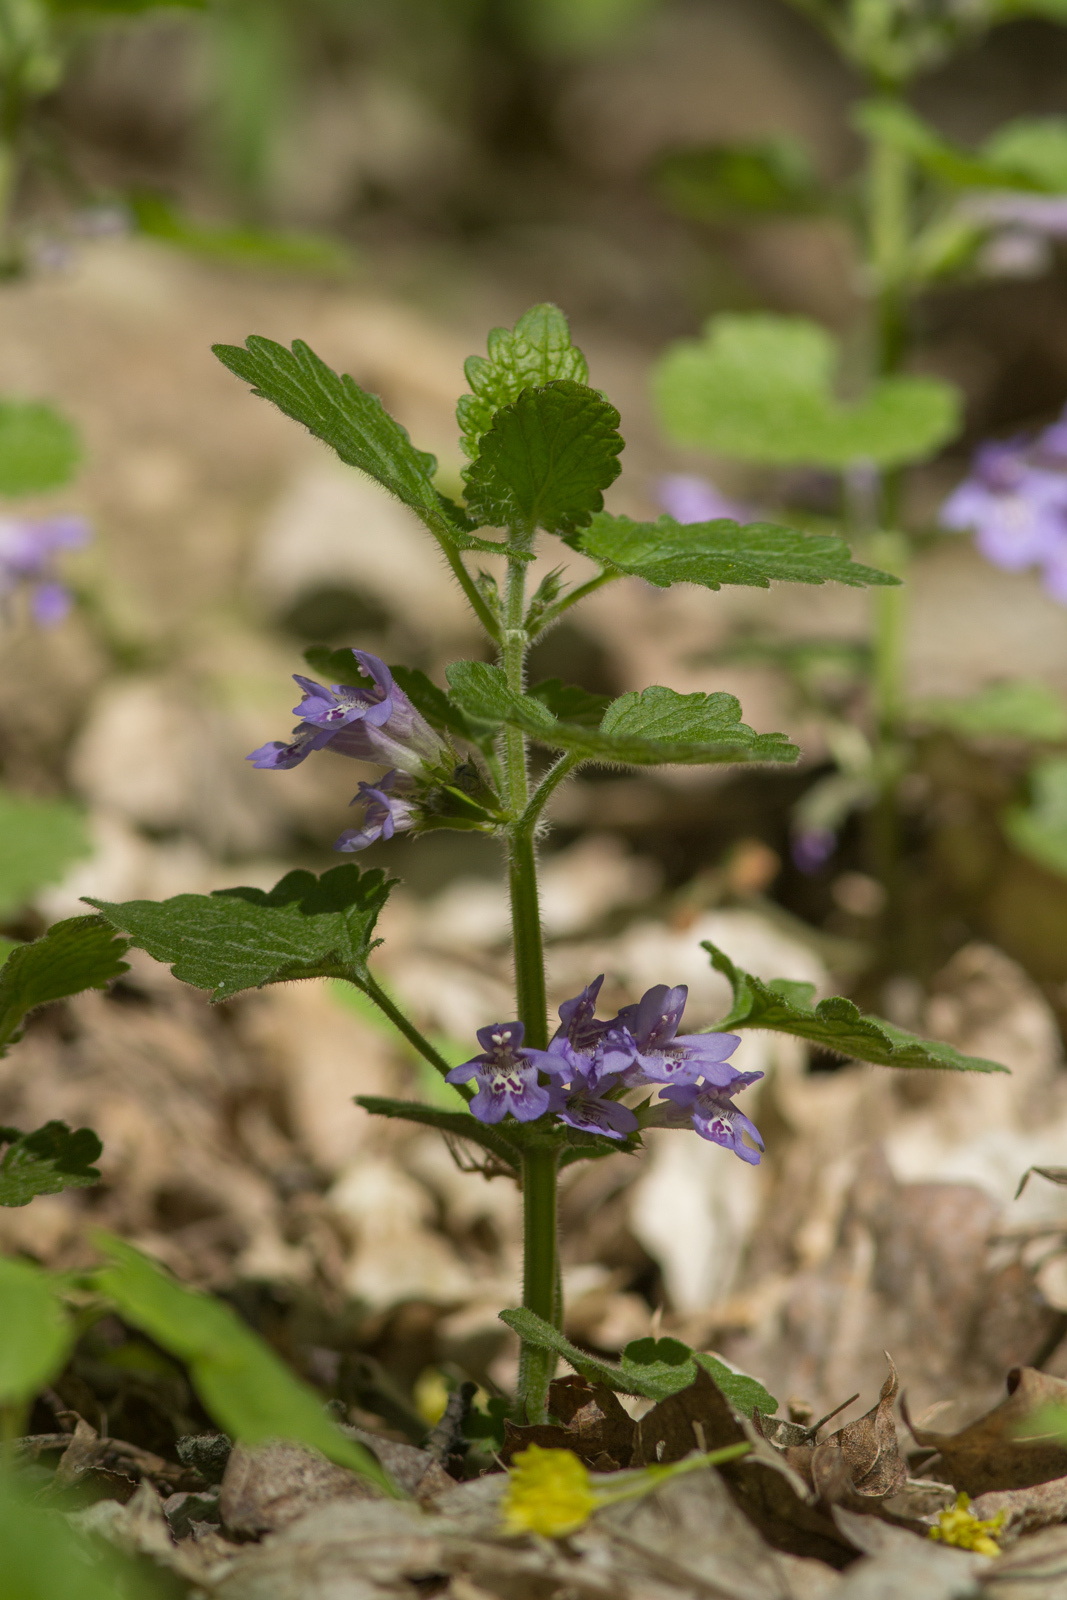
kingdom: Plantae
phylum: Tracheophyta
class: Magnoliopsida
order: Lamiales
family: Lamiaceae
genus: Glechoma
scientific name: Glechoma hirsuta
